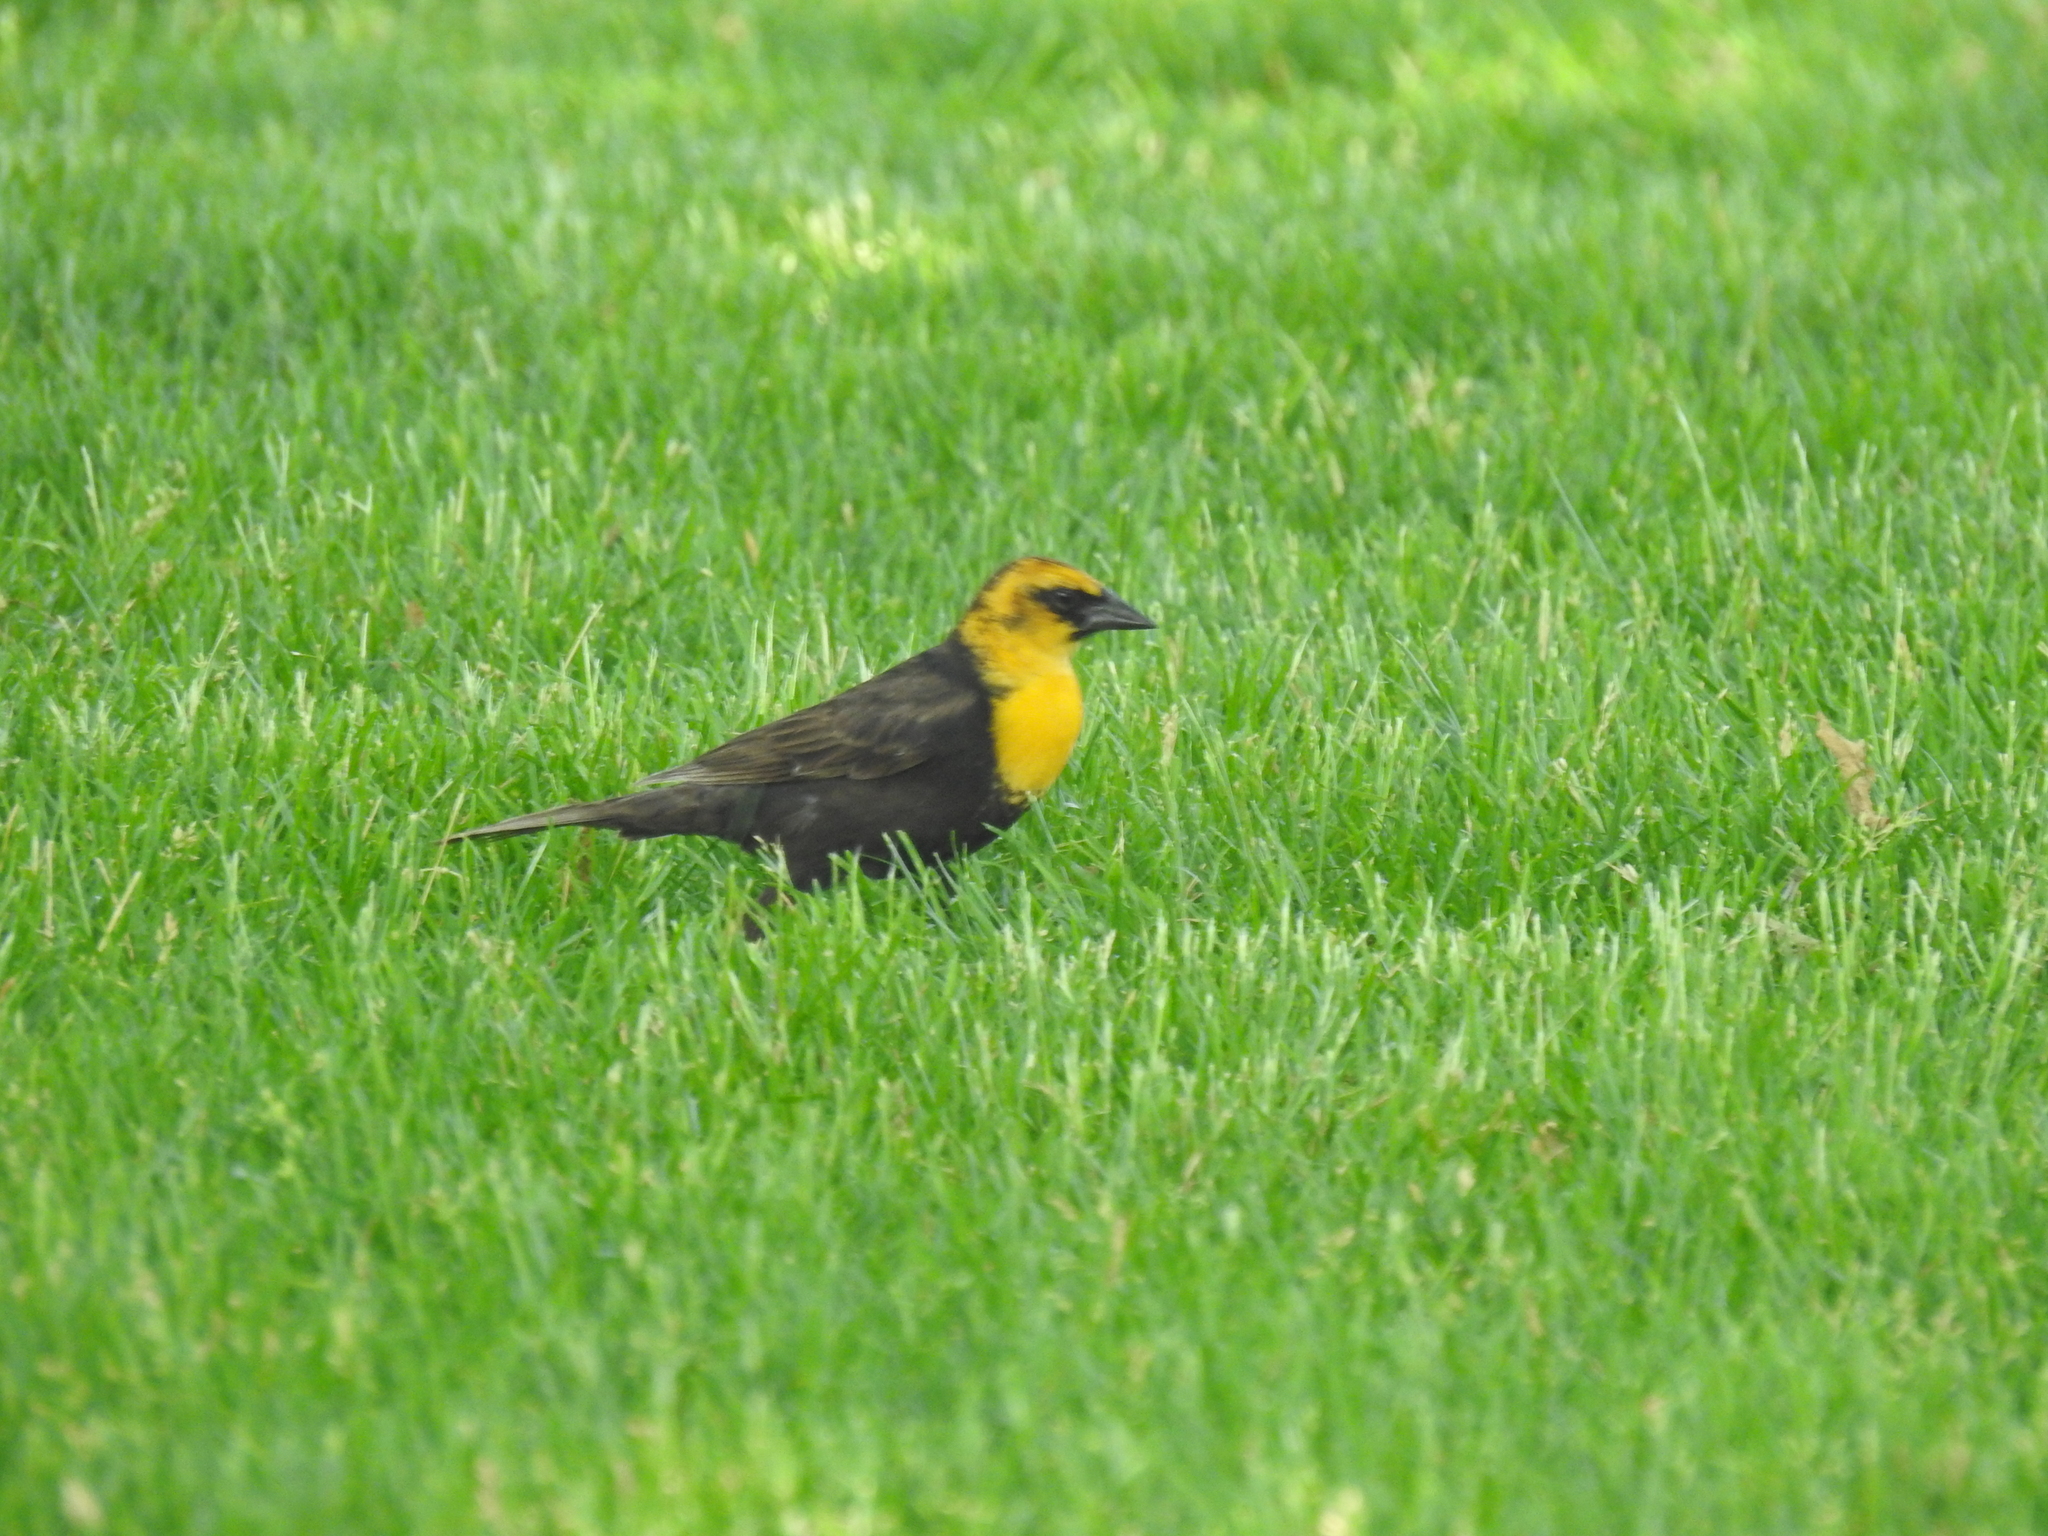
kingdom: Animalia
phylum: Chordata
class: Aves
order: Passeriformes
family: Icteridae
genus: Xanthocephalus
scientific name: Xanthocephalus xanthocephalus
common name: Yellow-headed blackbird
